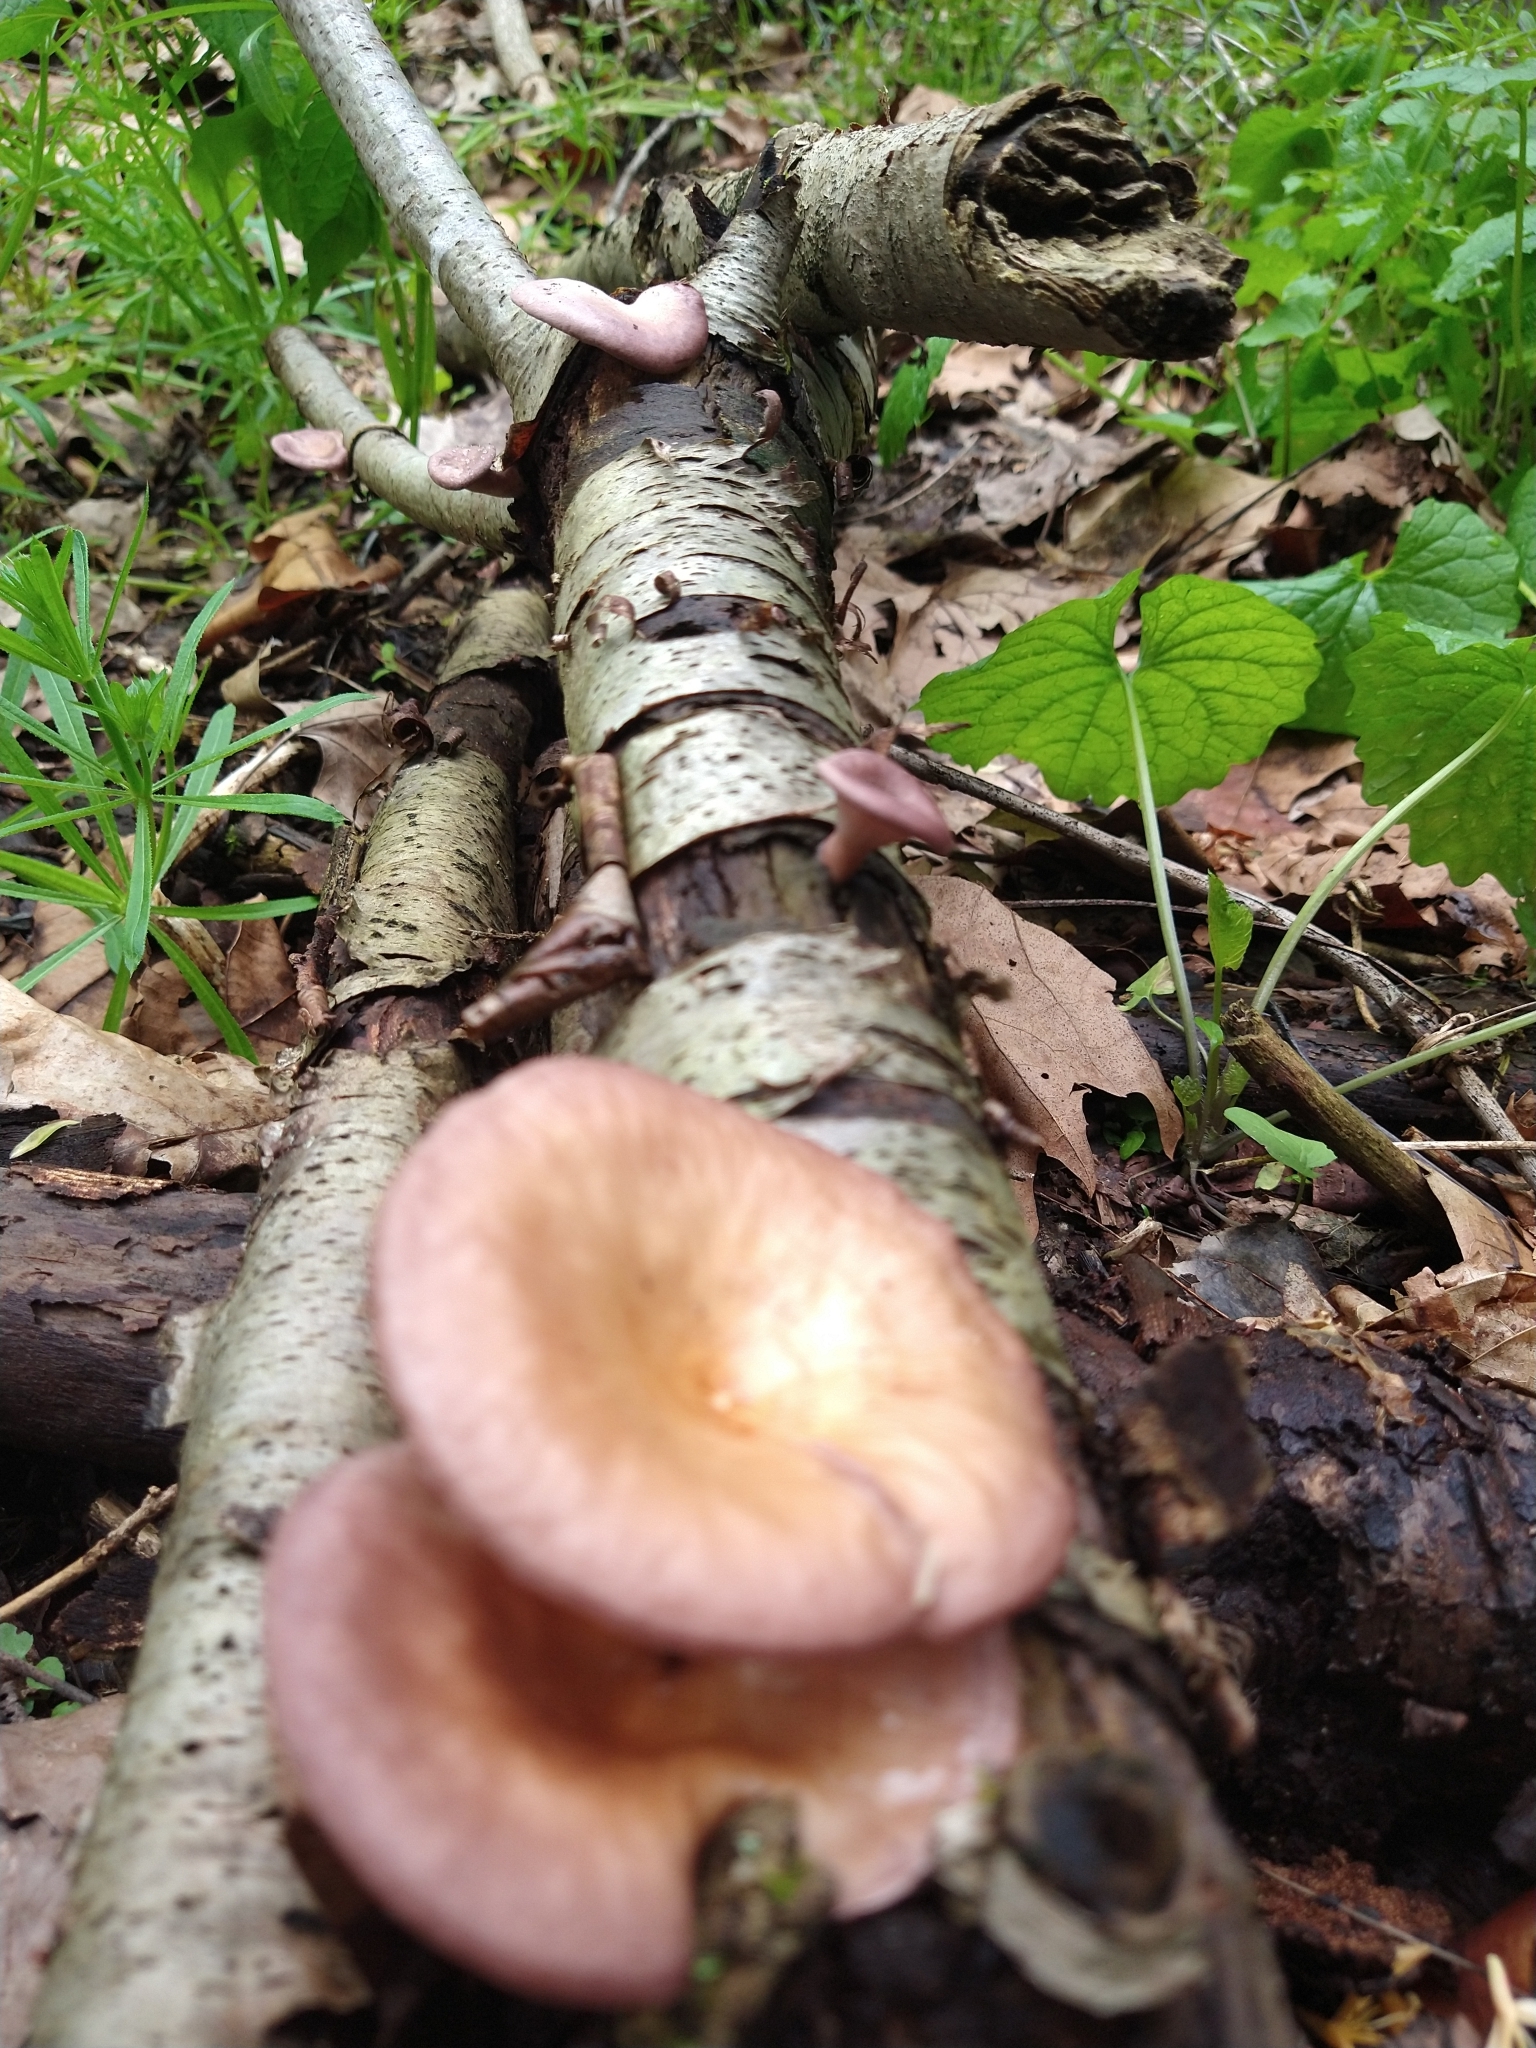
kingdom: Fungi
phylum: Basidiomycota
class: Agaricomycetes
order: Polyporales
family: Panaceae
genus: Panus
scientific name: Panus conchatus
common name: Lilac oysterling
